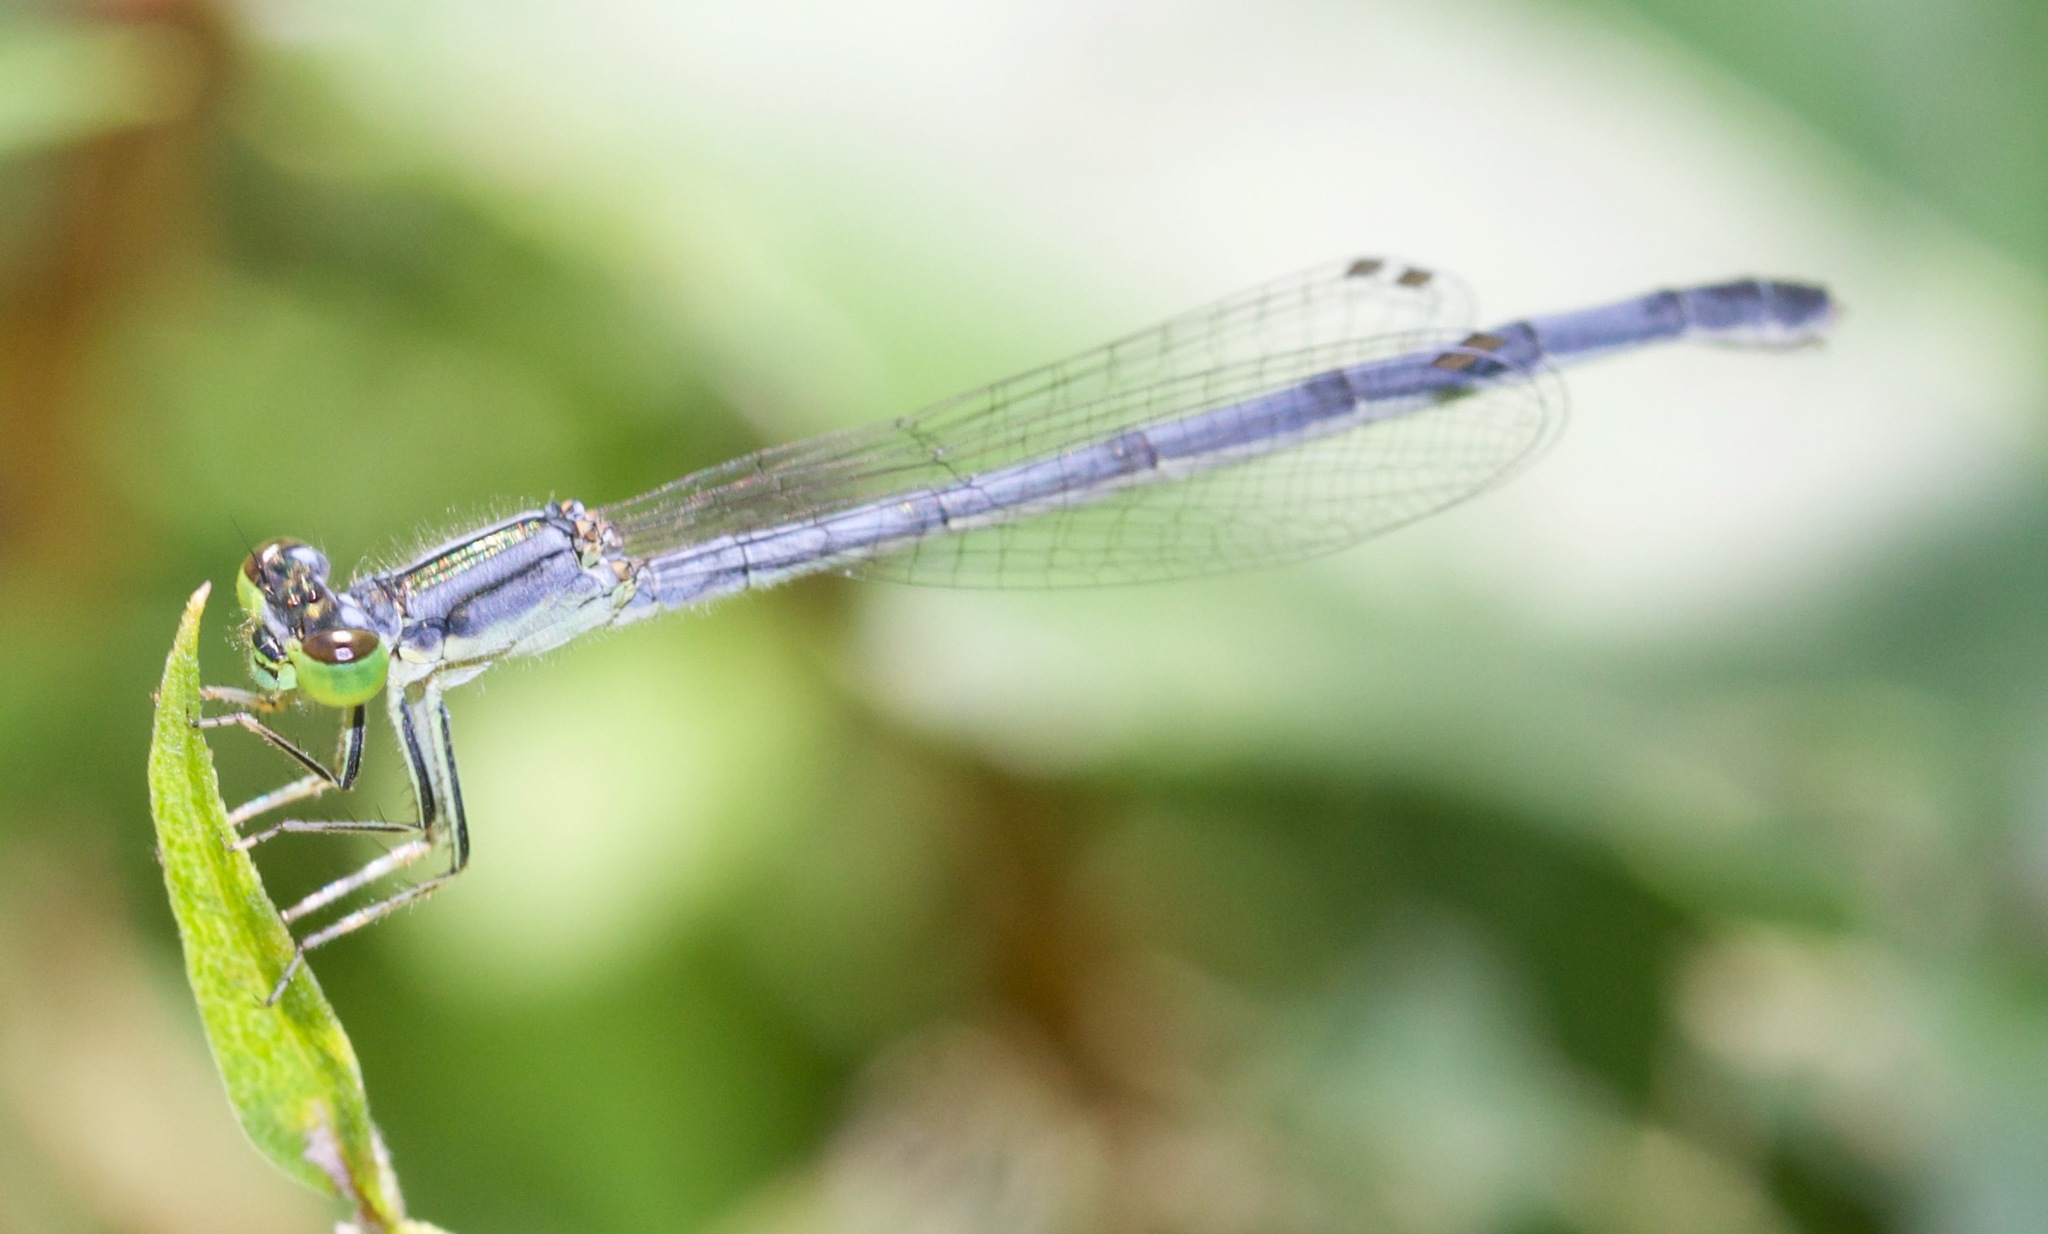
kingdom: Animalia
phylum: Arthropoda
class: Insecta
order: Odonata
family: Coenagrionidae
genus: Ischnura
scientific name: Ischnura verticalis
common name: Eastern forktail
